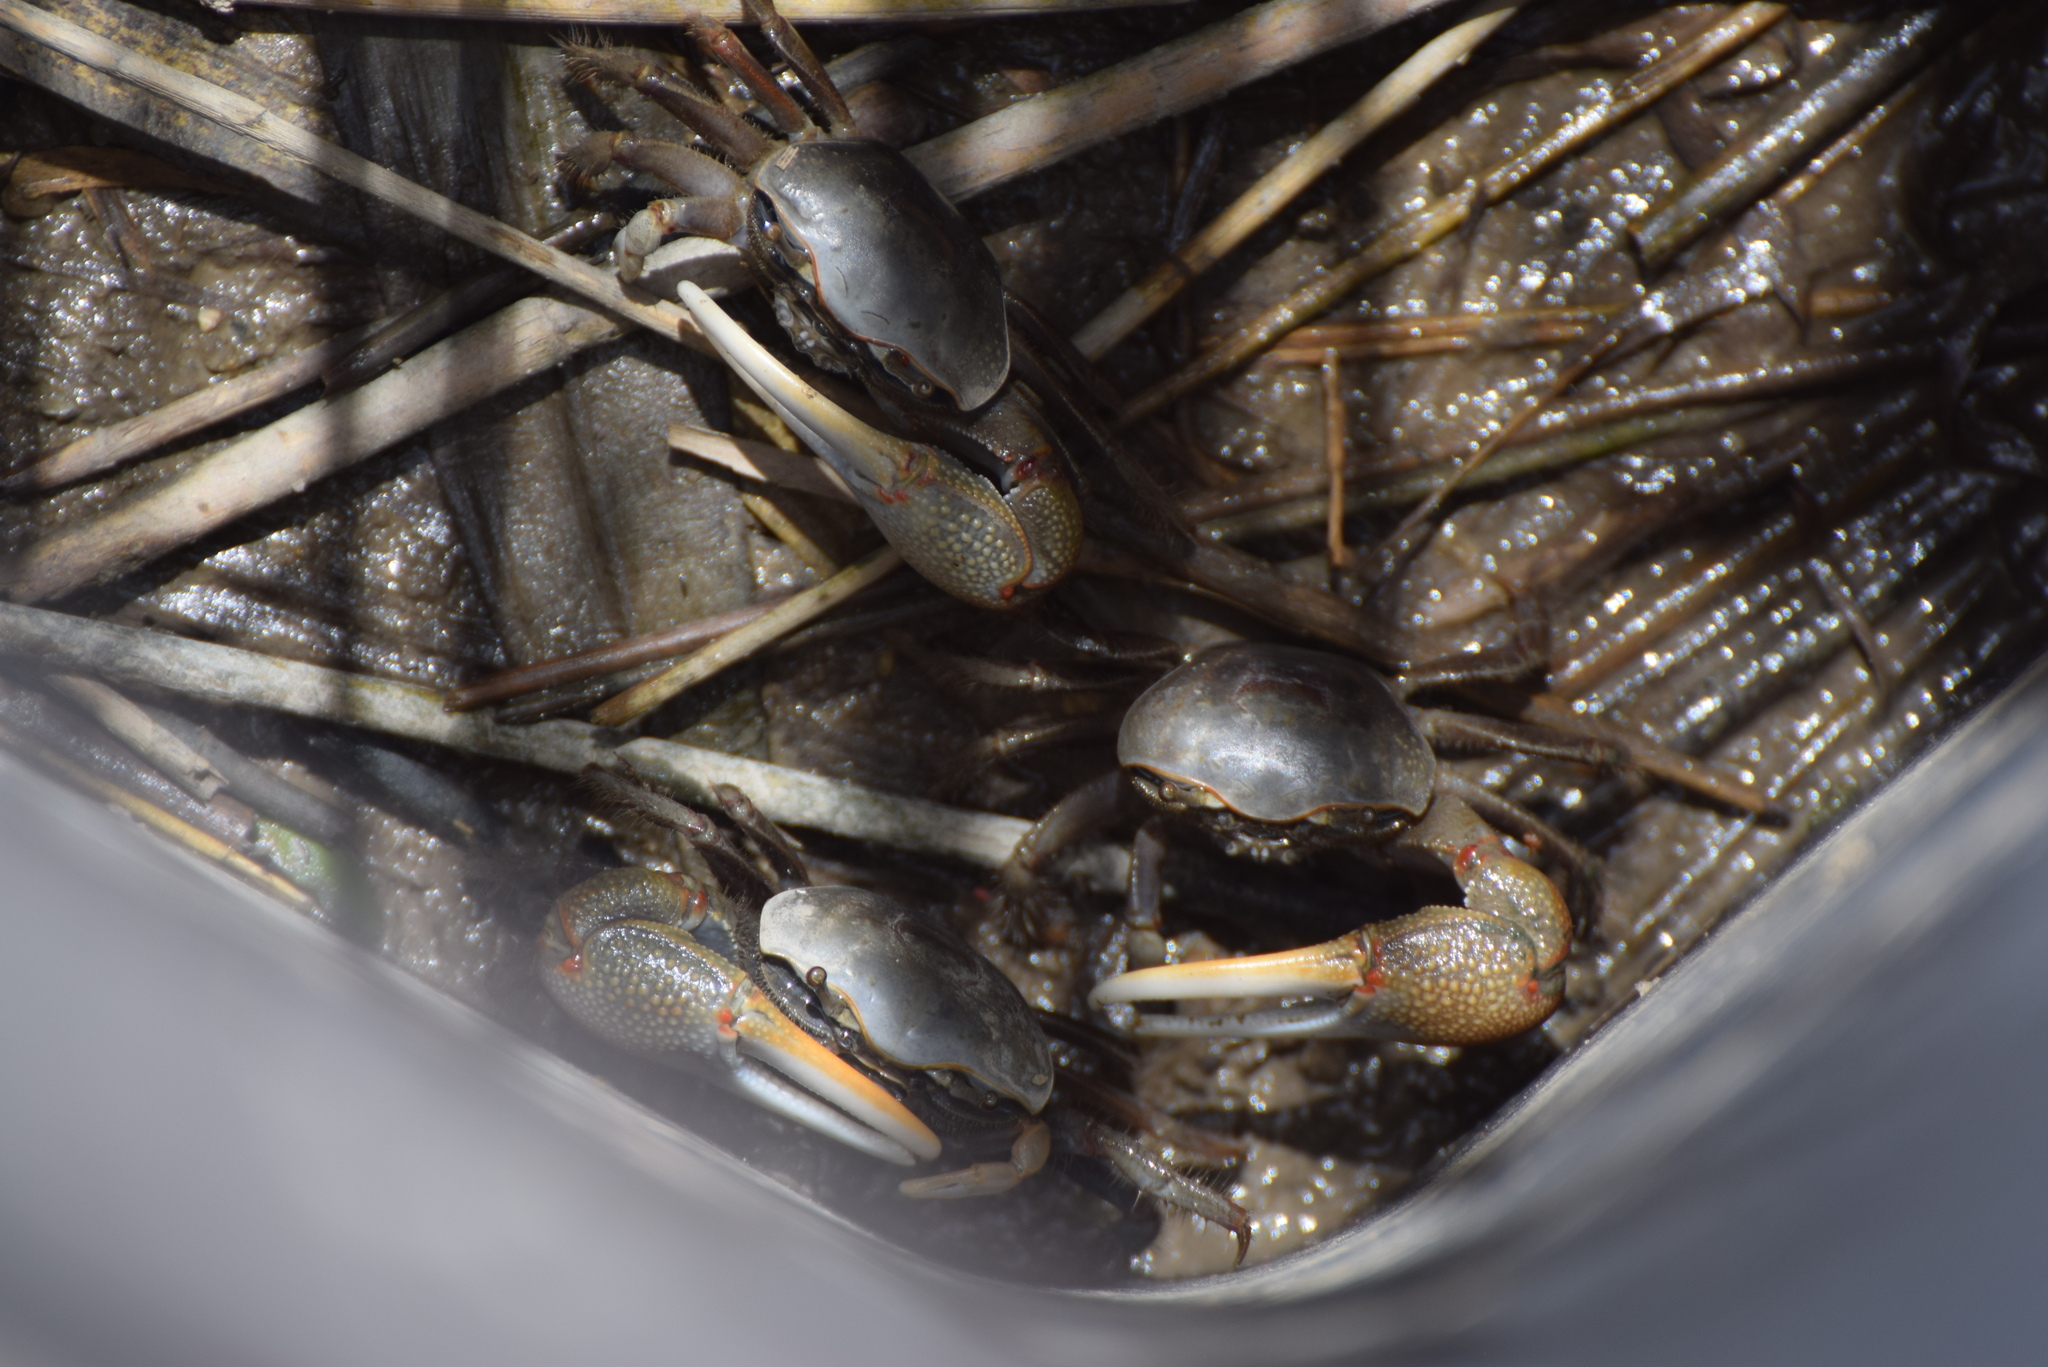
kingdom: Animalia
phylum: Arthropoda
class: Malacostraca
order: Decapoda
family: Ocypodidae
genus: Minuca
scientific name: Minuca minax
